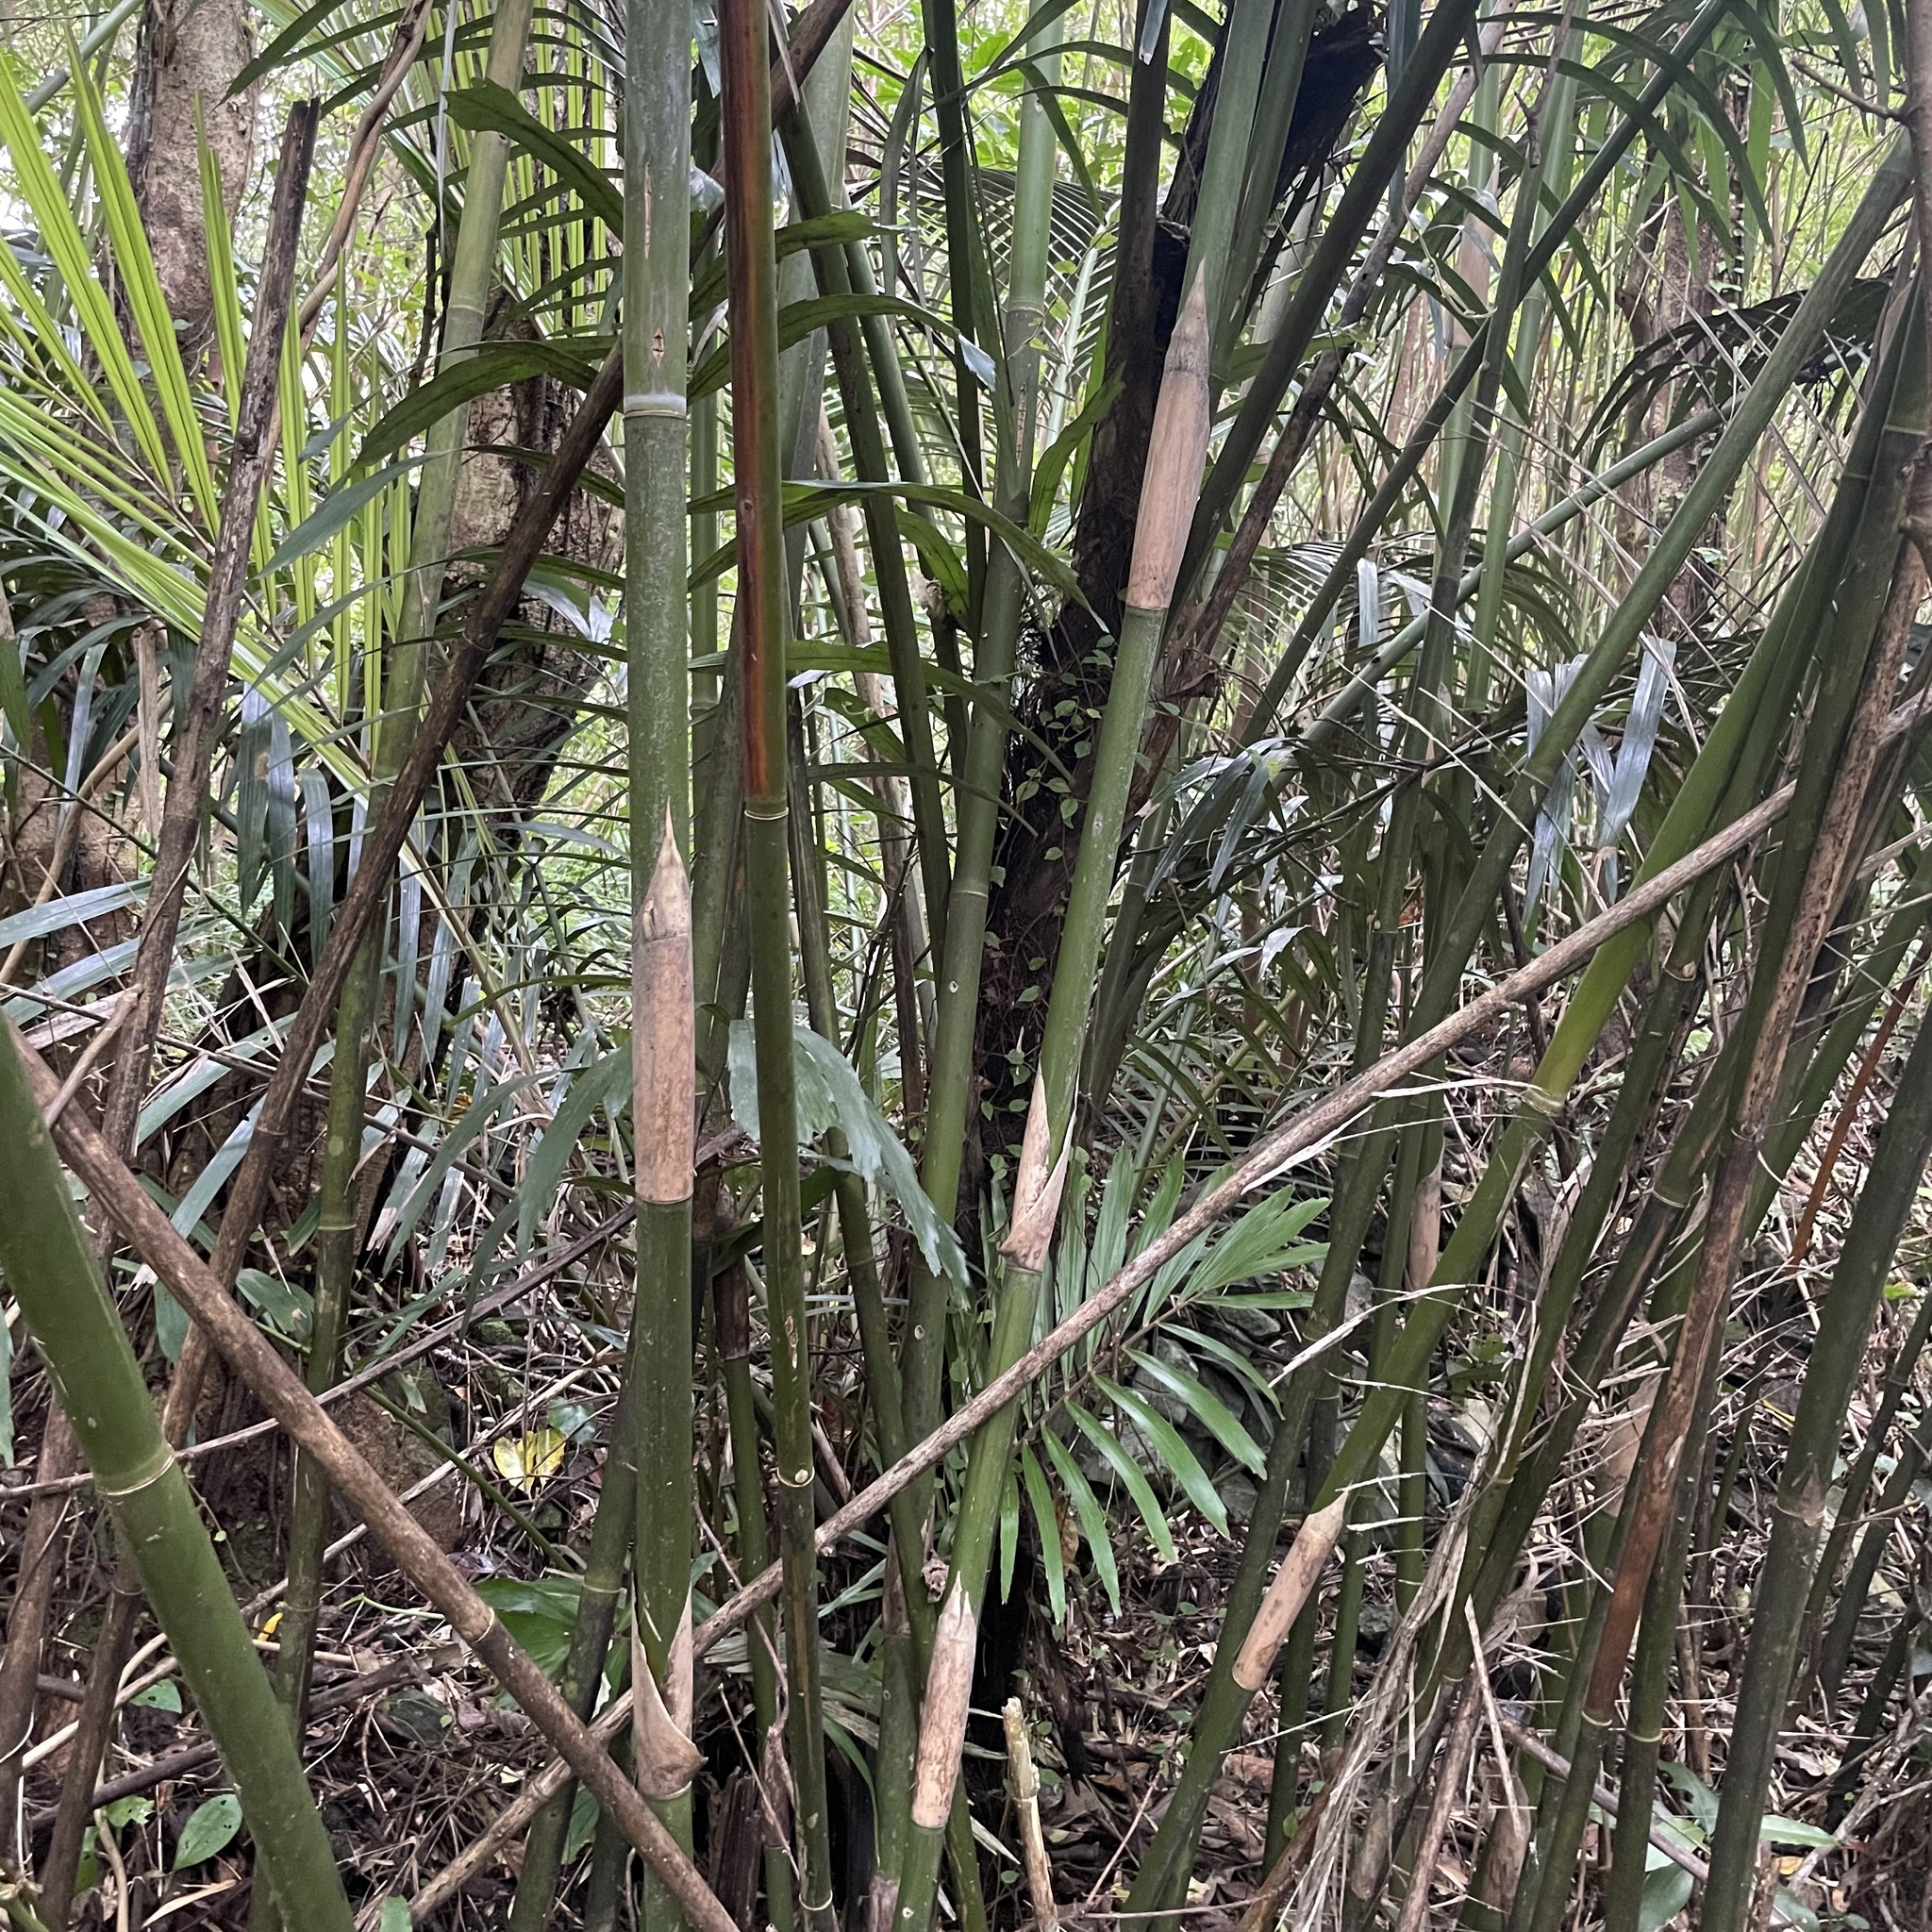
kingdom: Plantae
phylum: Tracheophyta
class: Liliopsida
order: Arecales
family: Arecaceae
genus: Arenga
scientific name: Arenga ryukyuensis
